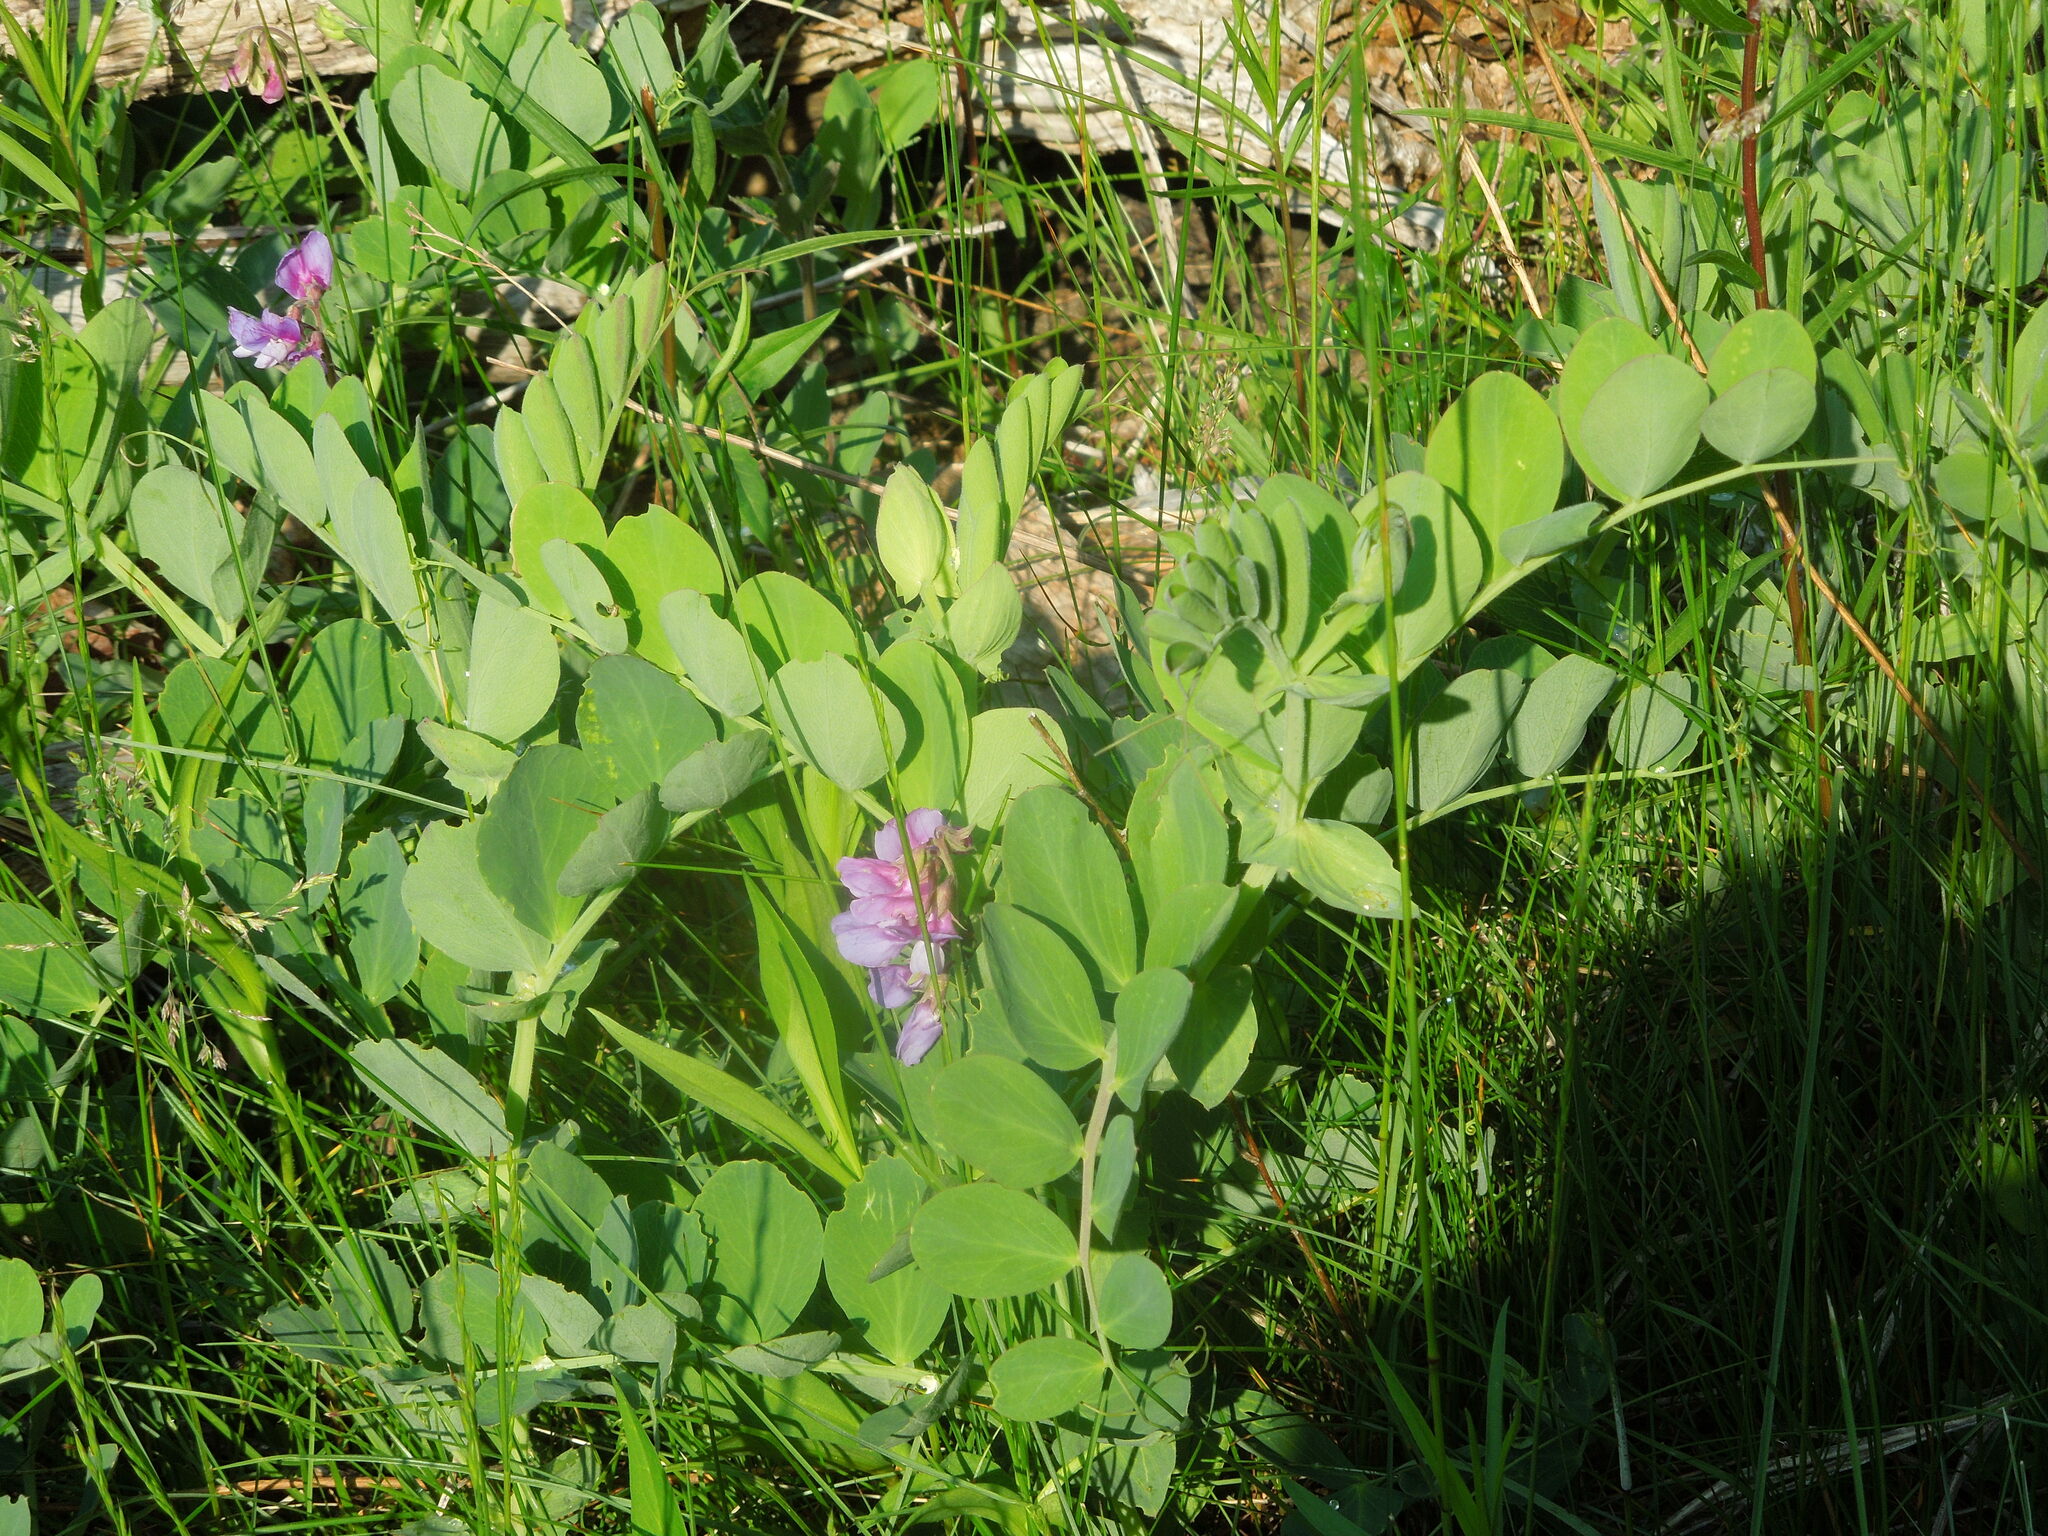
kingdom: Plantae
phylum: Tracheophyta
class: Magnoliopsida
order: Fabales
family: Fabaceae
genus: Lathyrus
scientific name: Lathyrus japonicus
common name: Sea pea
